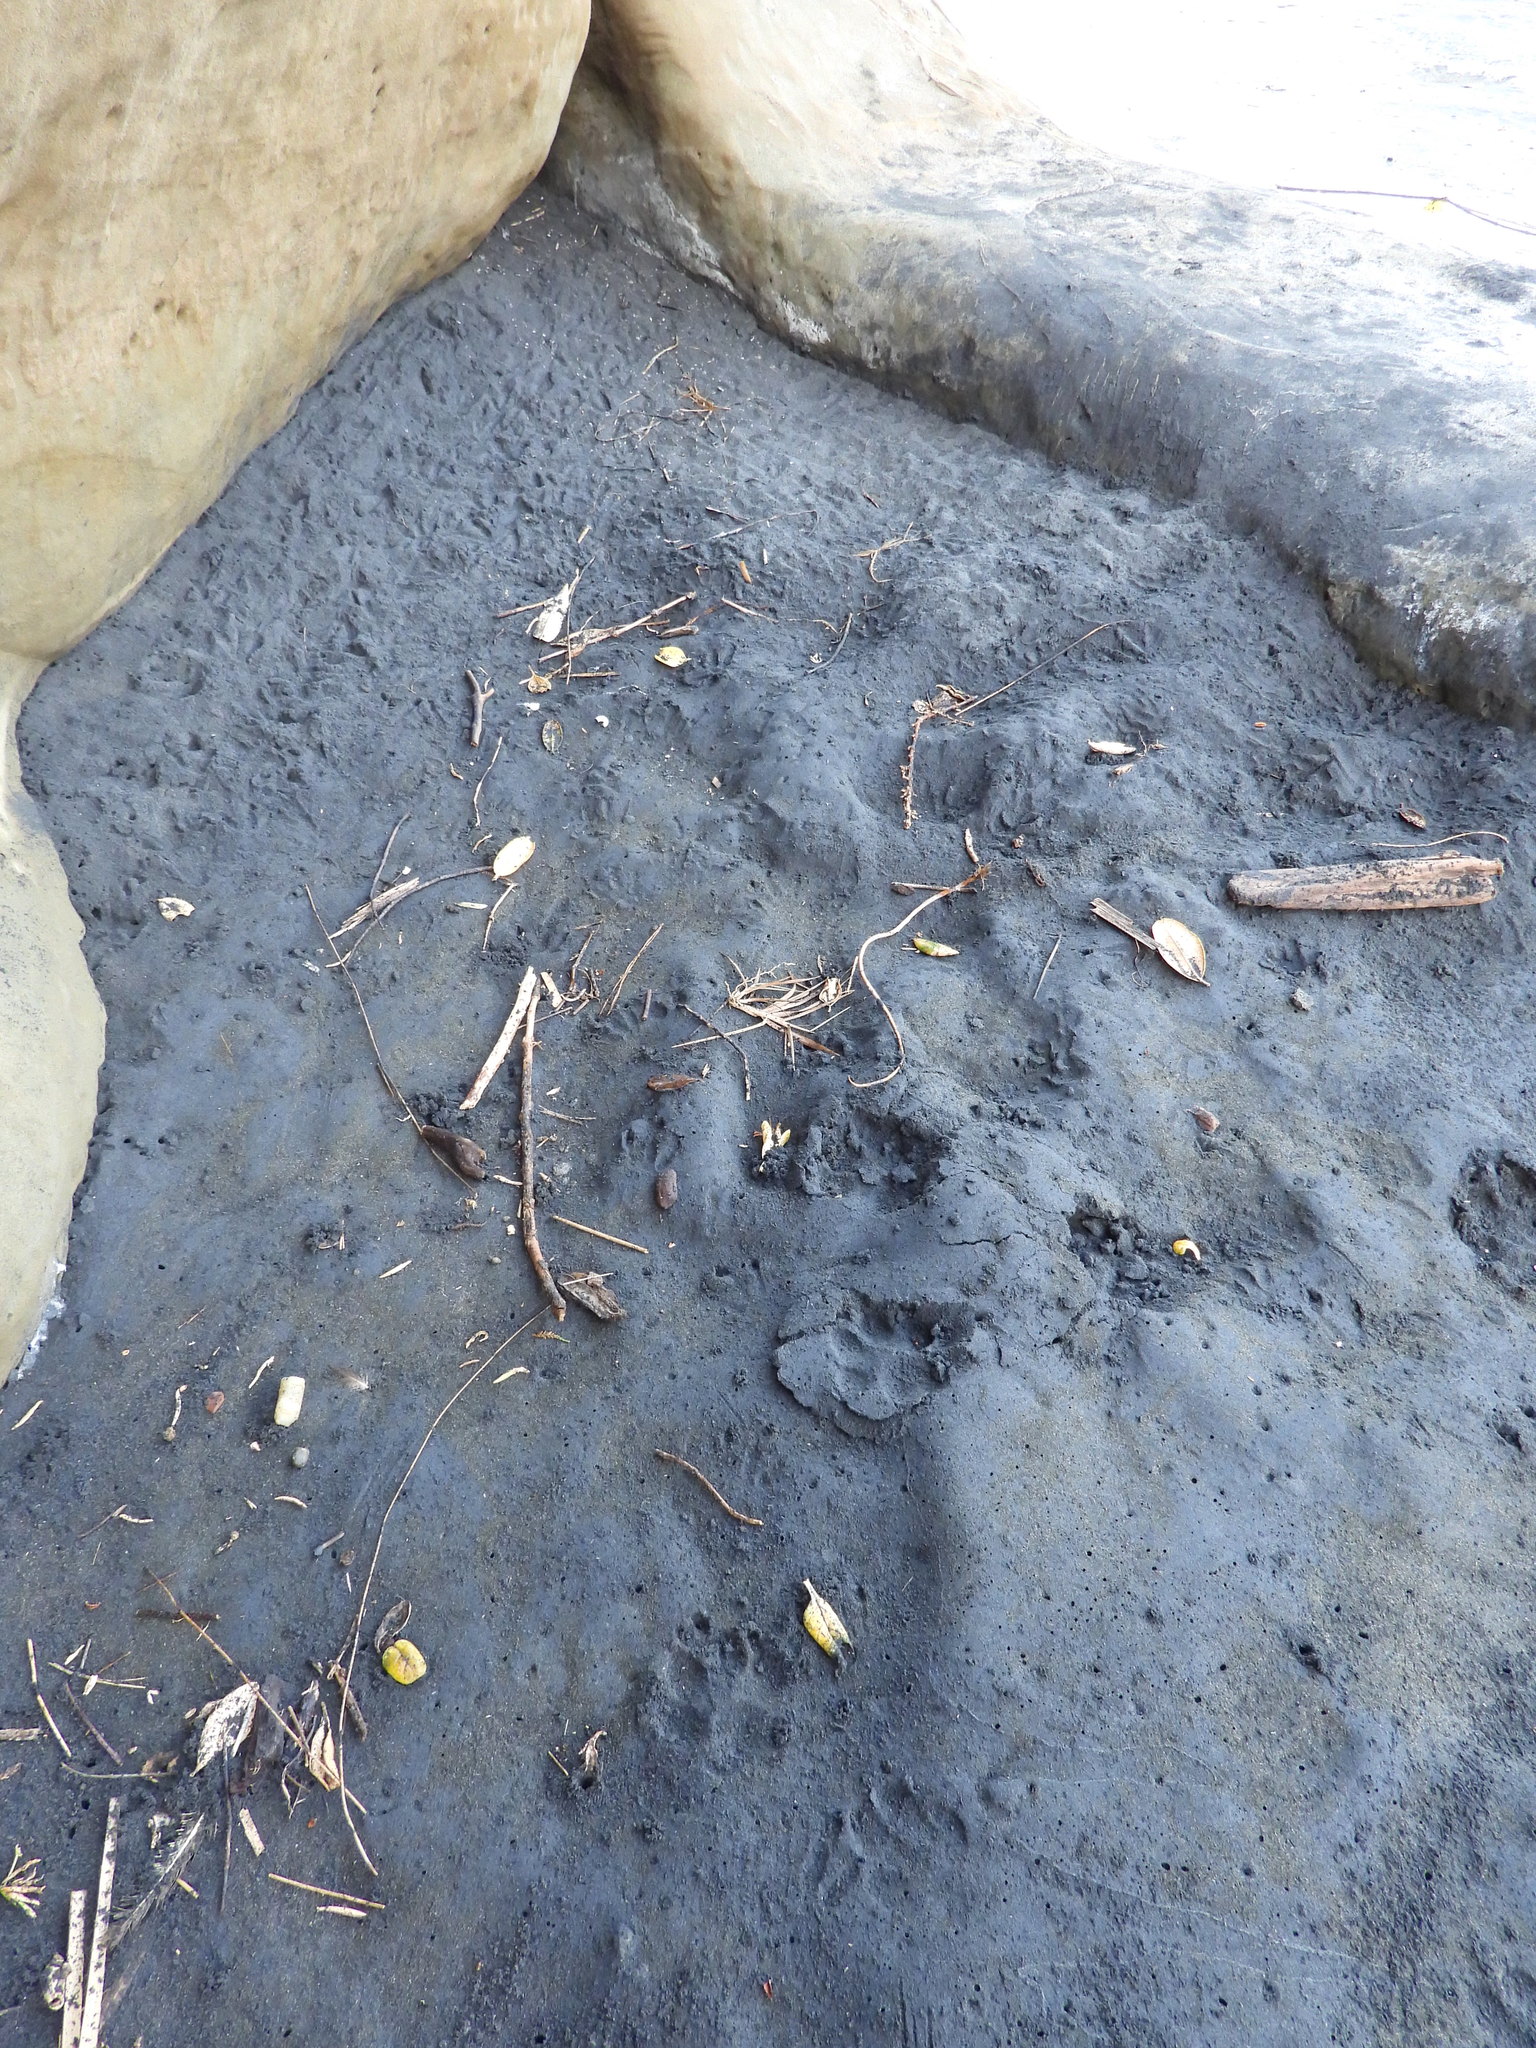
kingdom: Animalia
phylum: Chordata
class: Aves
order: Sphenisciformes
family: Spheniscidae
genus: Eudyptula
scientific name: Eudyptula minor
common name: Little penguin
